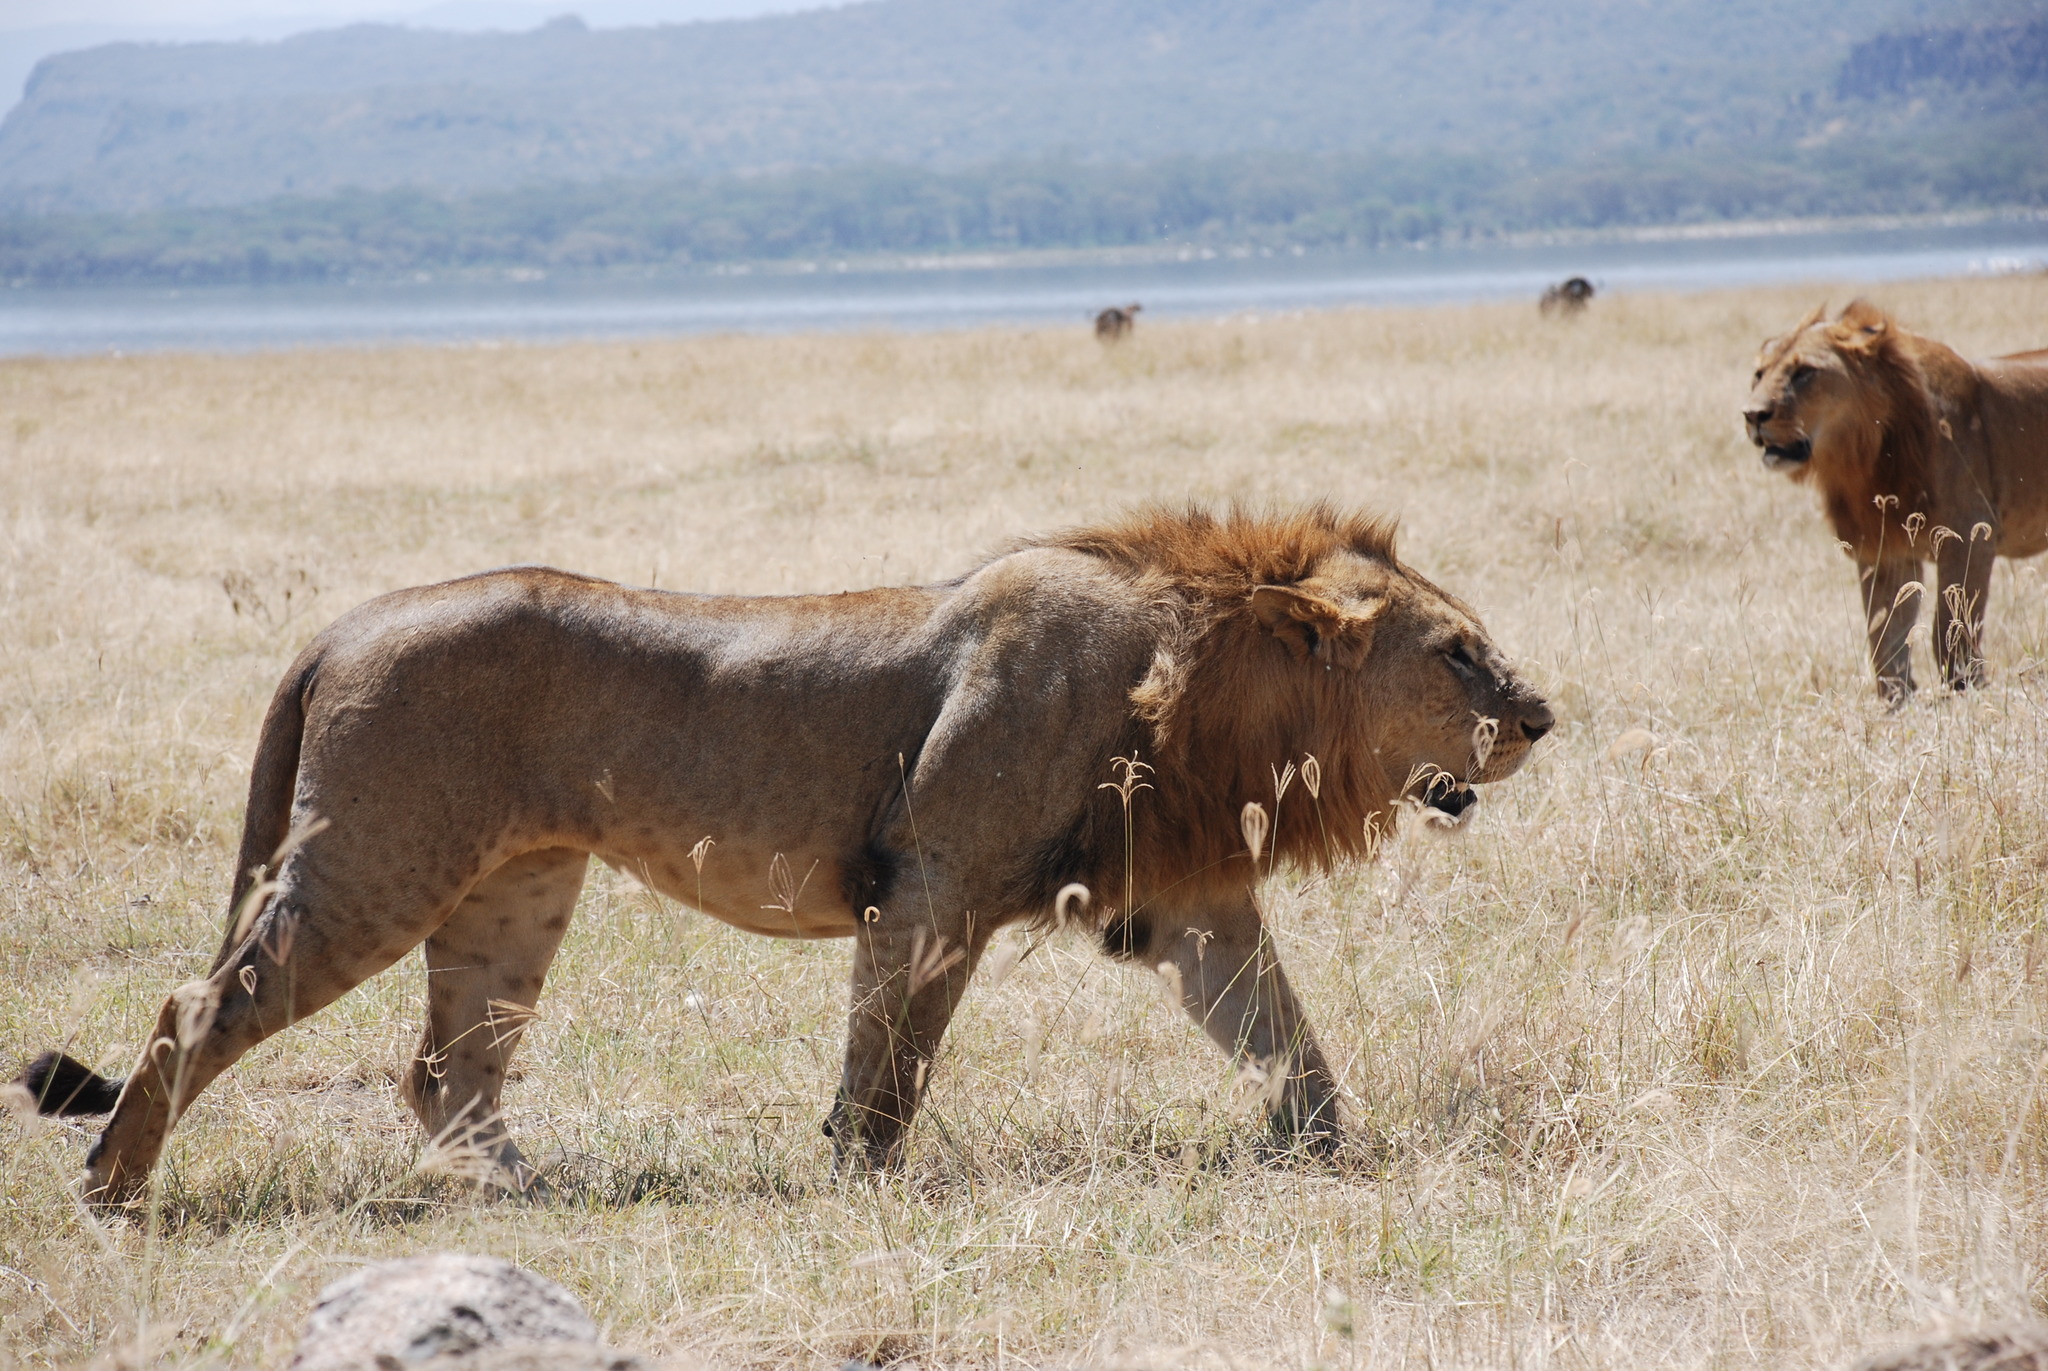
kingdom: Animalia
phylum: Chordata
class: Mammalia
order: Carnivora
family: Felidae
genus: Panthera
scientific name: Panthera leo
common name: Lion
